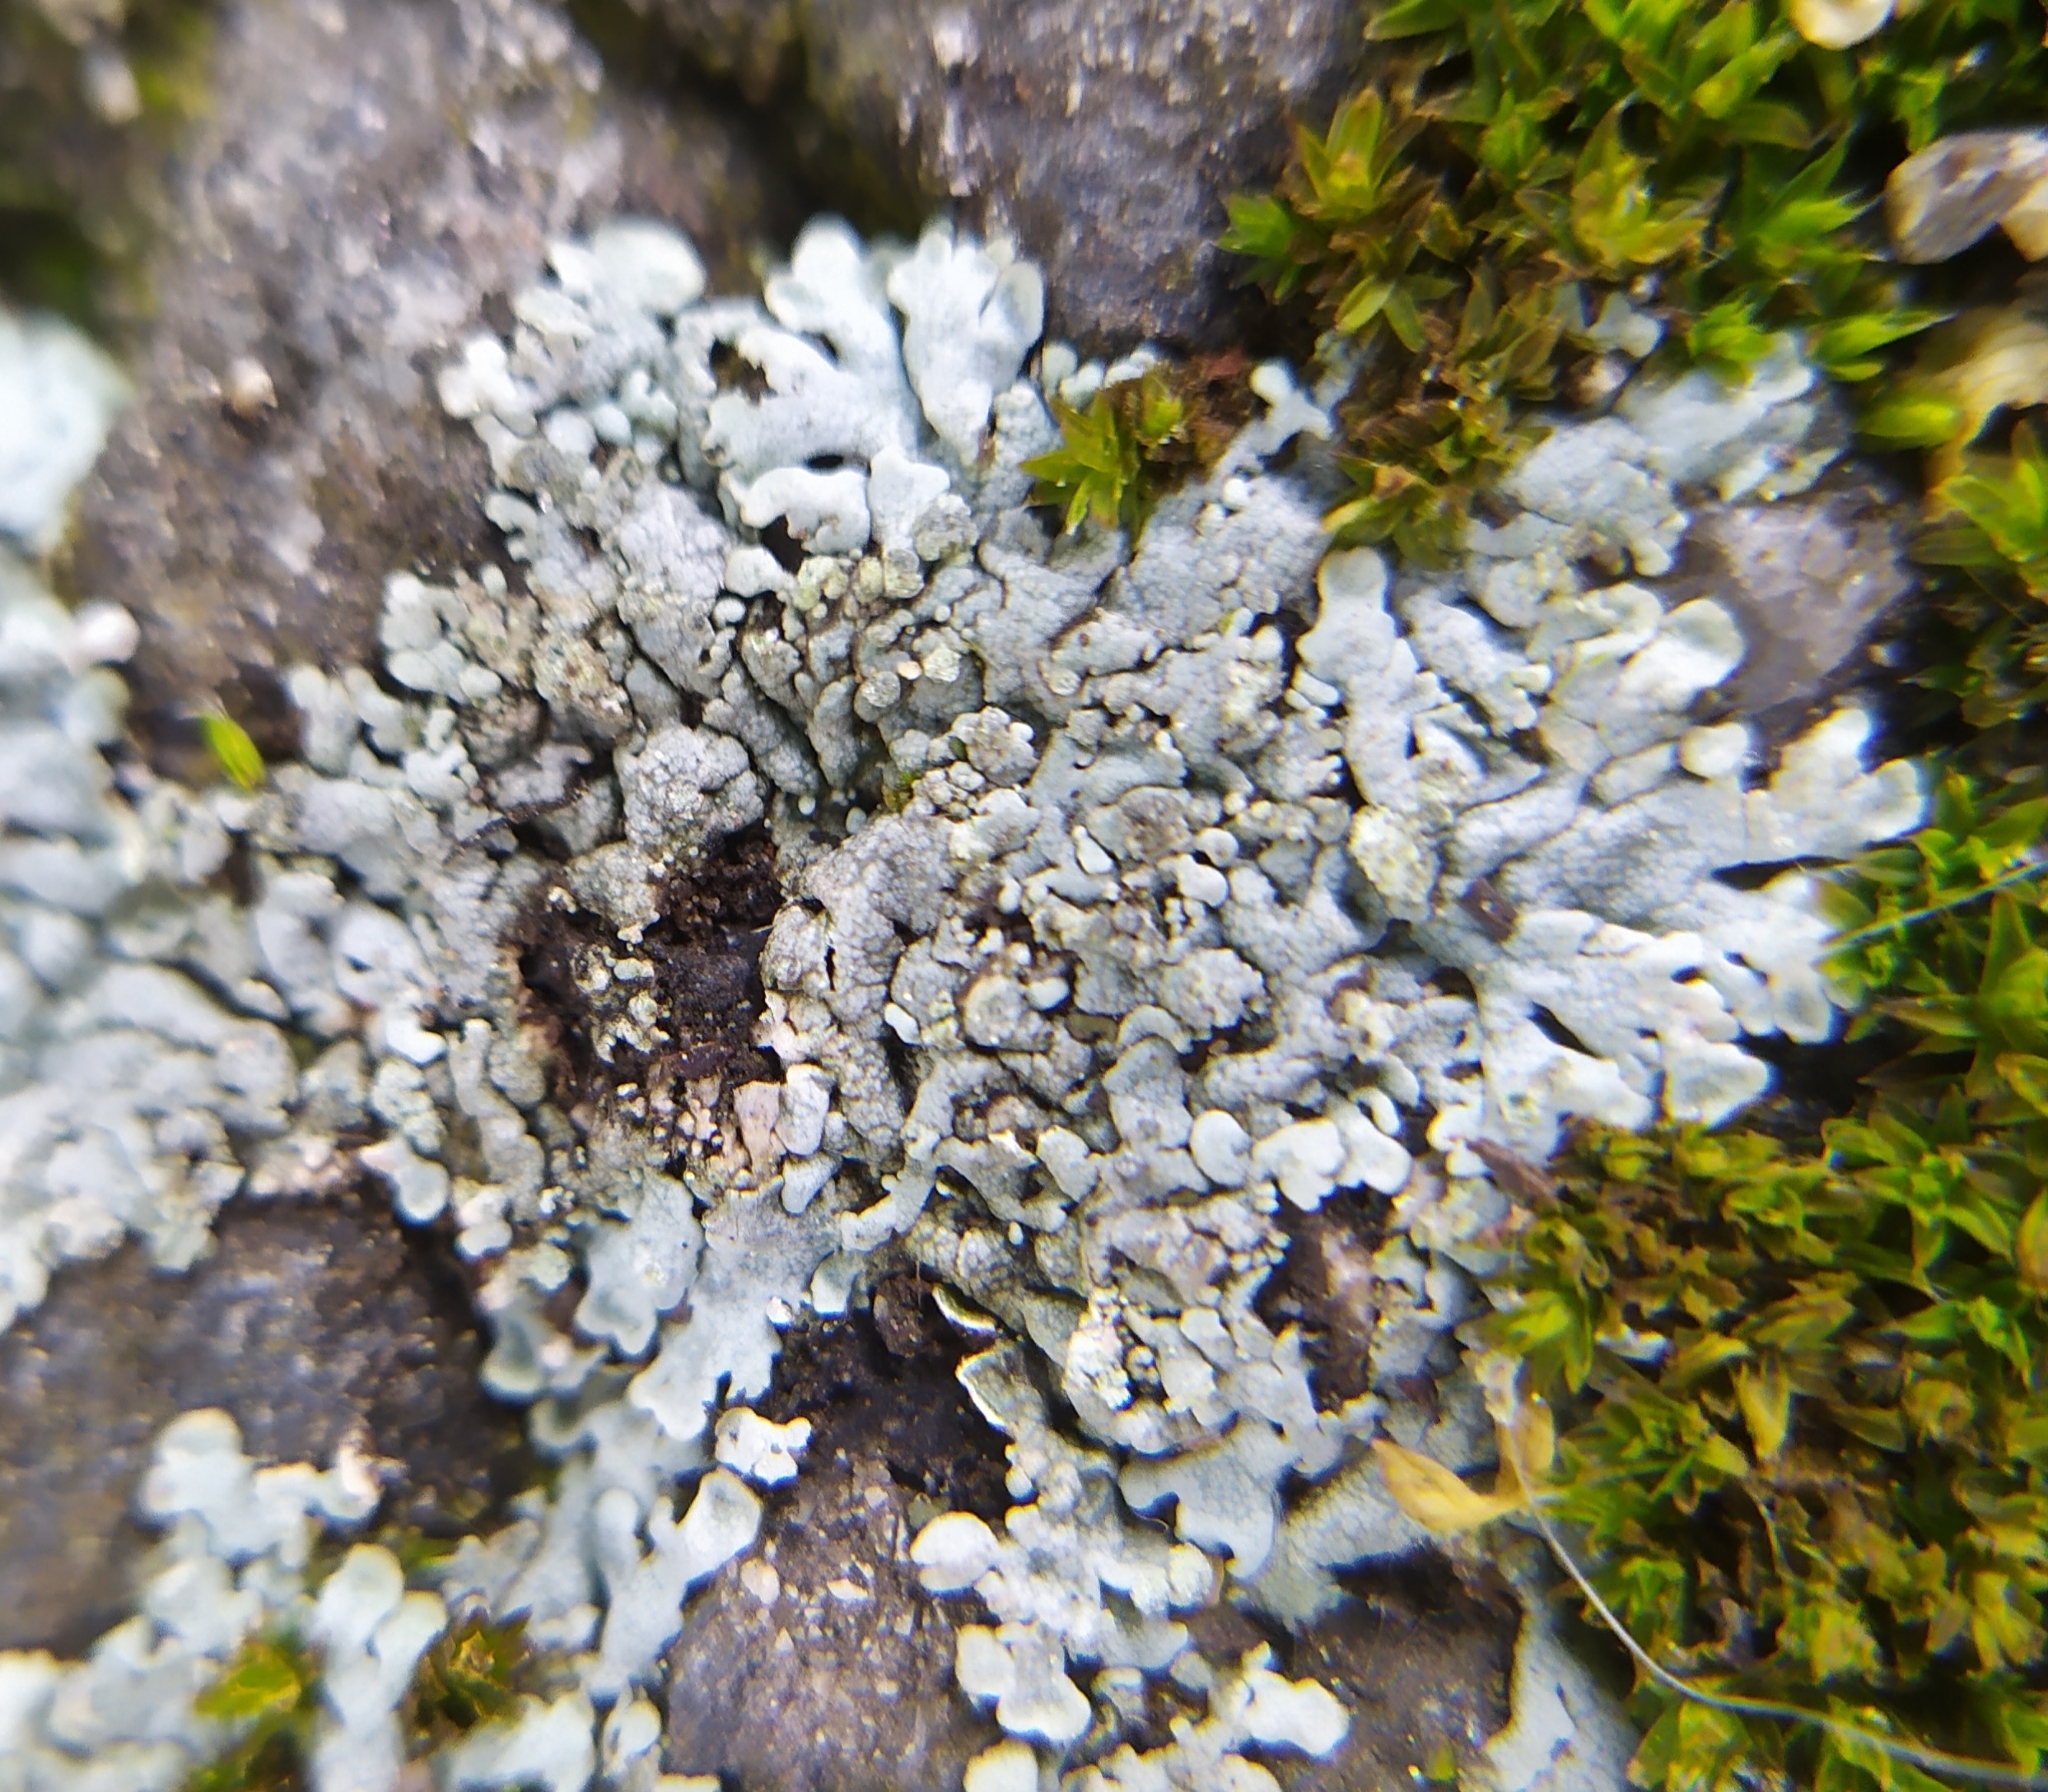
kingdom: Fungi
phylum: Ascomycota
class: Lecanoromycetes
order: Caliciales
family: Physciaceae
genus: Physcia
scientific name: Physcia caesia
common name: Blue-gray rosette lichen
